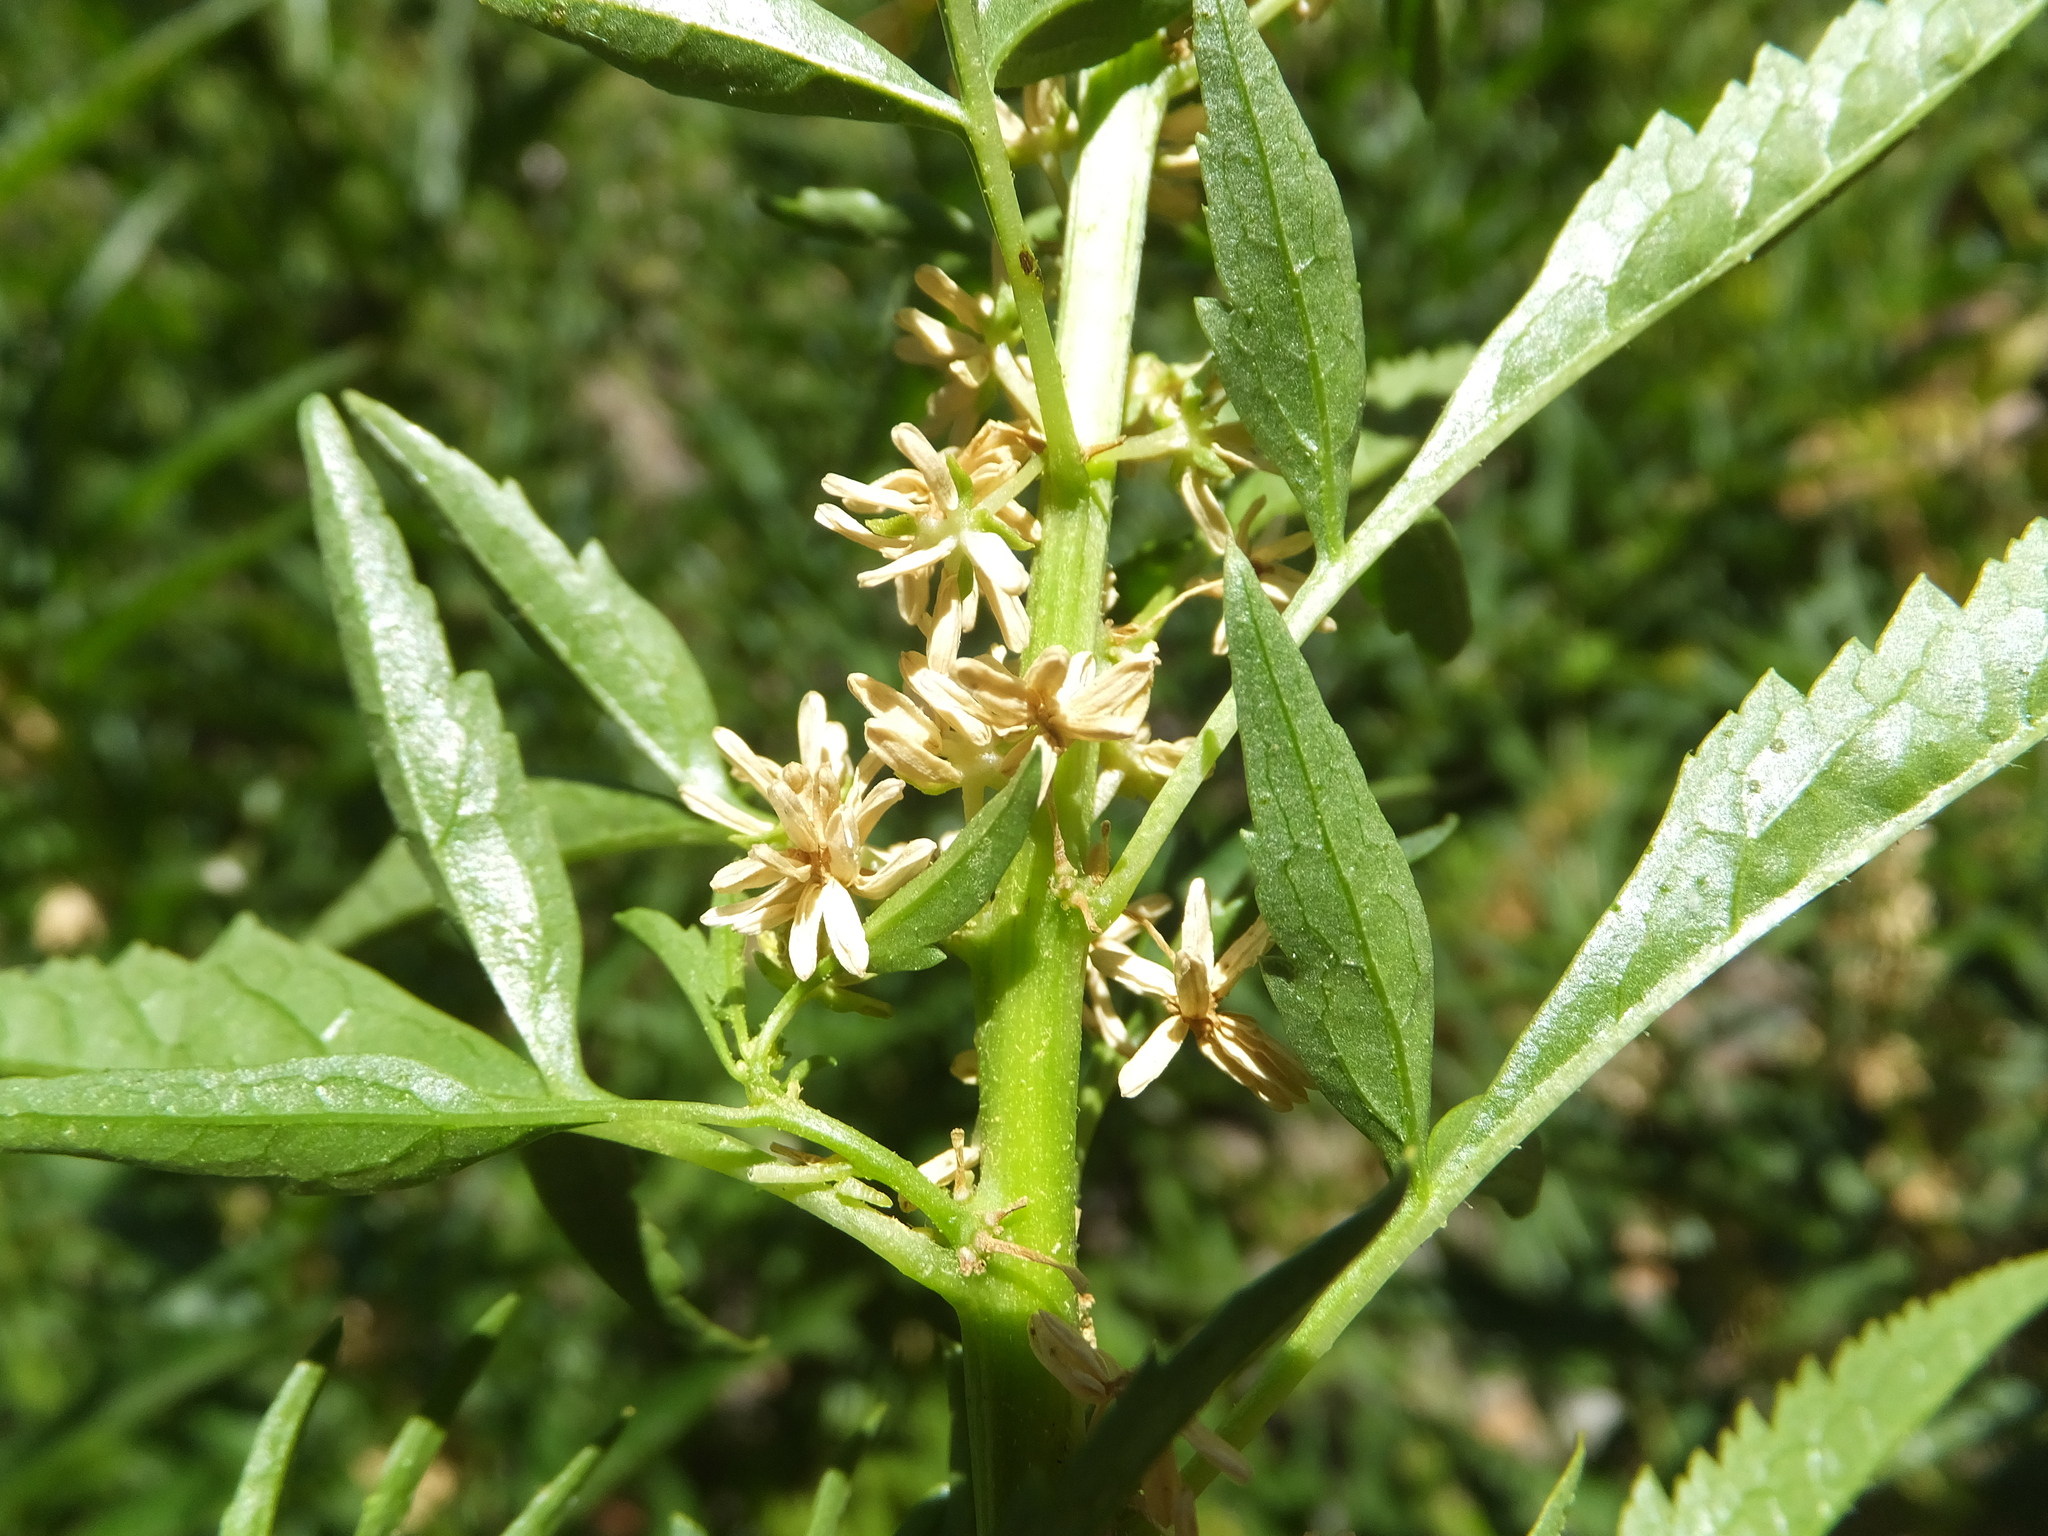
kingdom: Plantae
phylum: Tracheophyta
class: Magnoliopsida
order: Cucurbitales
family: Datiscaceae
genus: Datisca
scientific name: Datisca glomerata
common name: Durango-root
